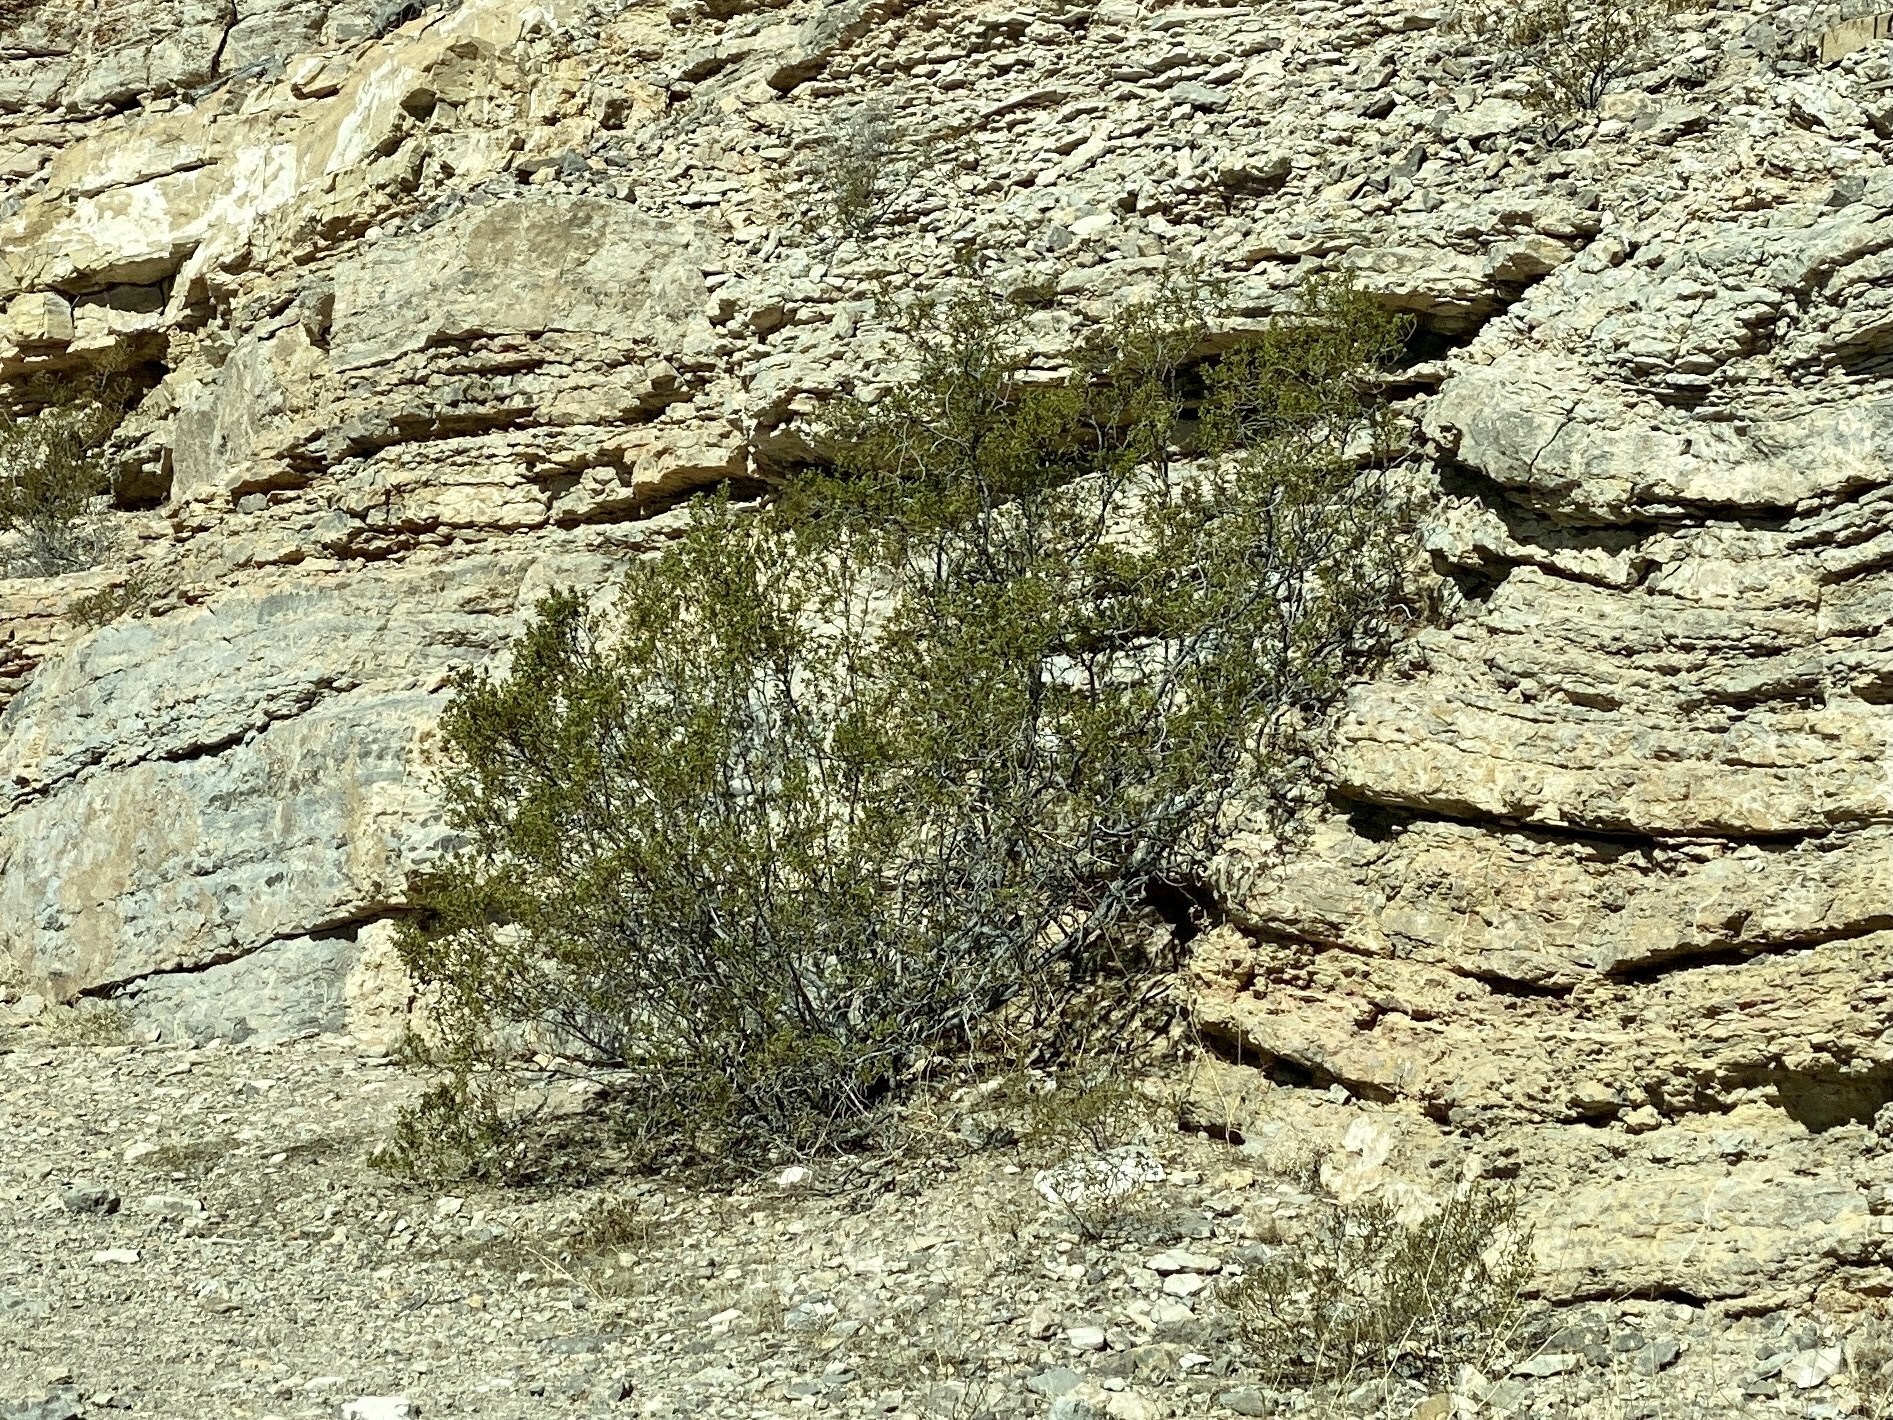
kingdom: Plantae
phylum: Tracheophyta
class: Magnoliopsida
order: Zygophyllales
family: Zygophyllaceae
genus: Larrea
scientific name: Larrea tridentata
